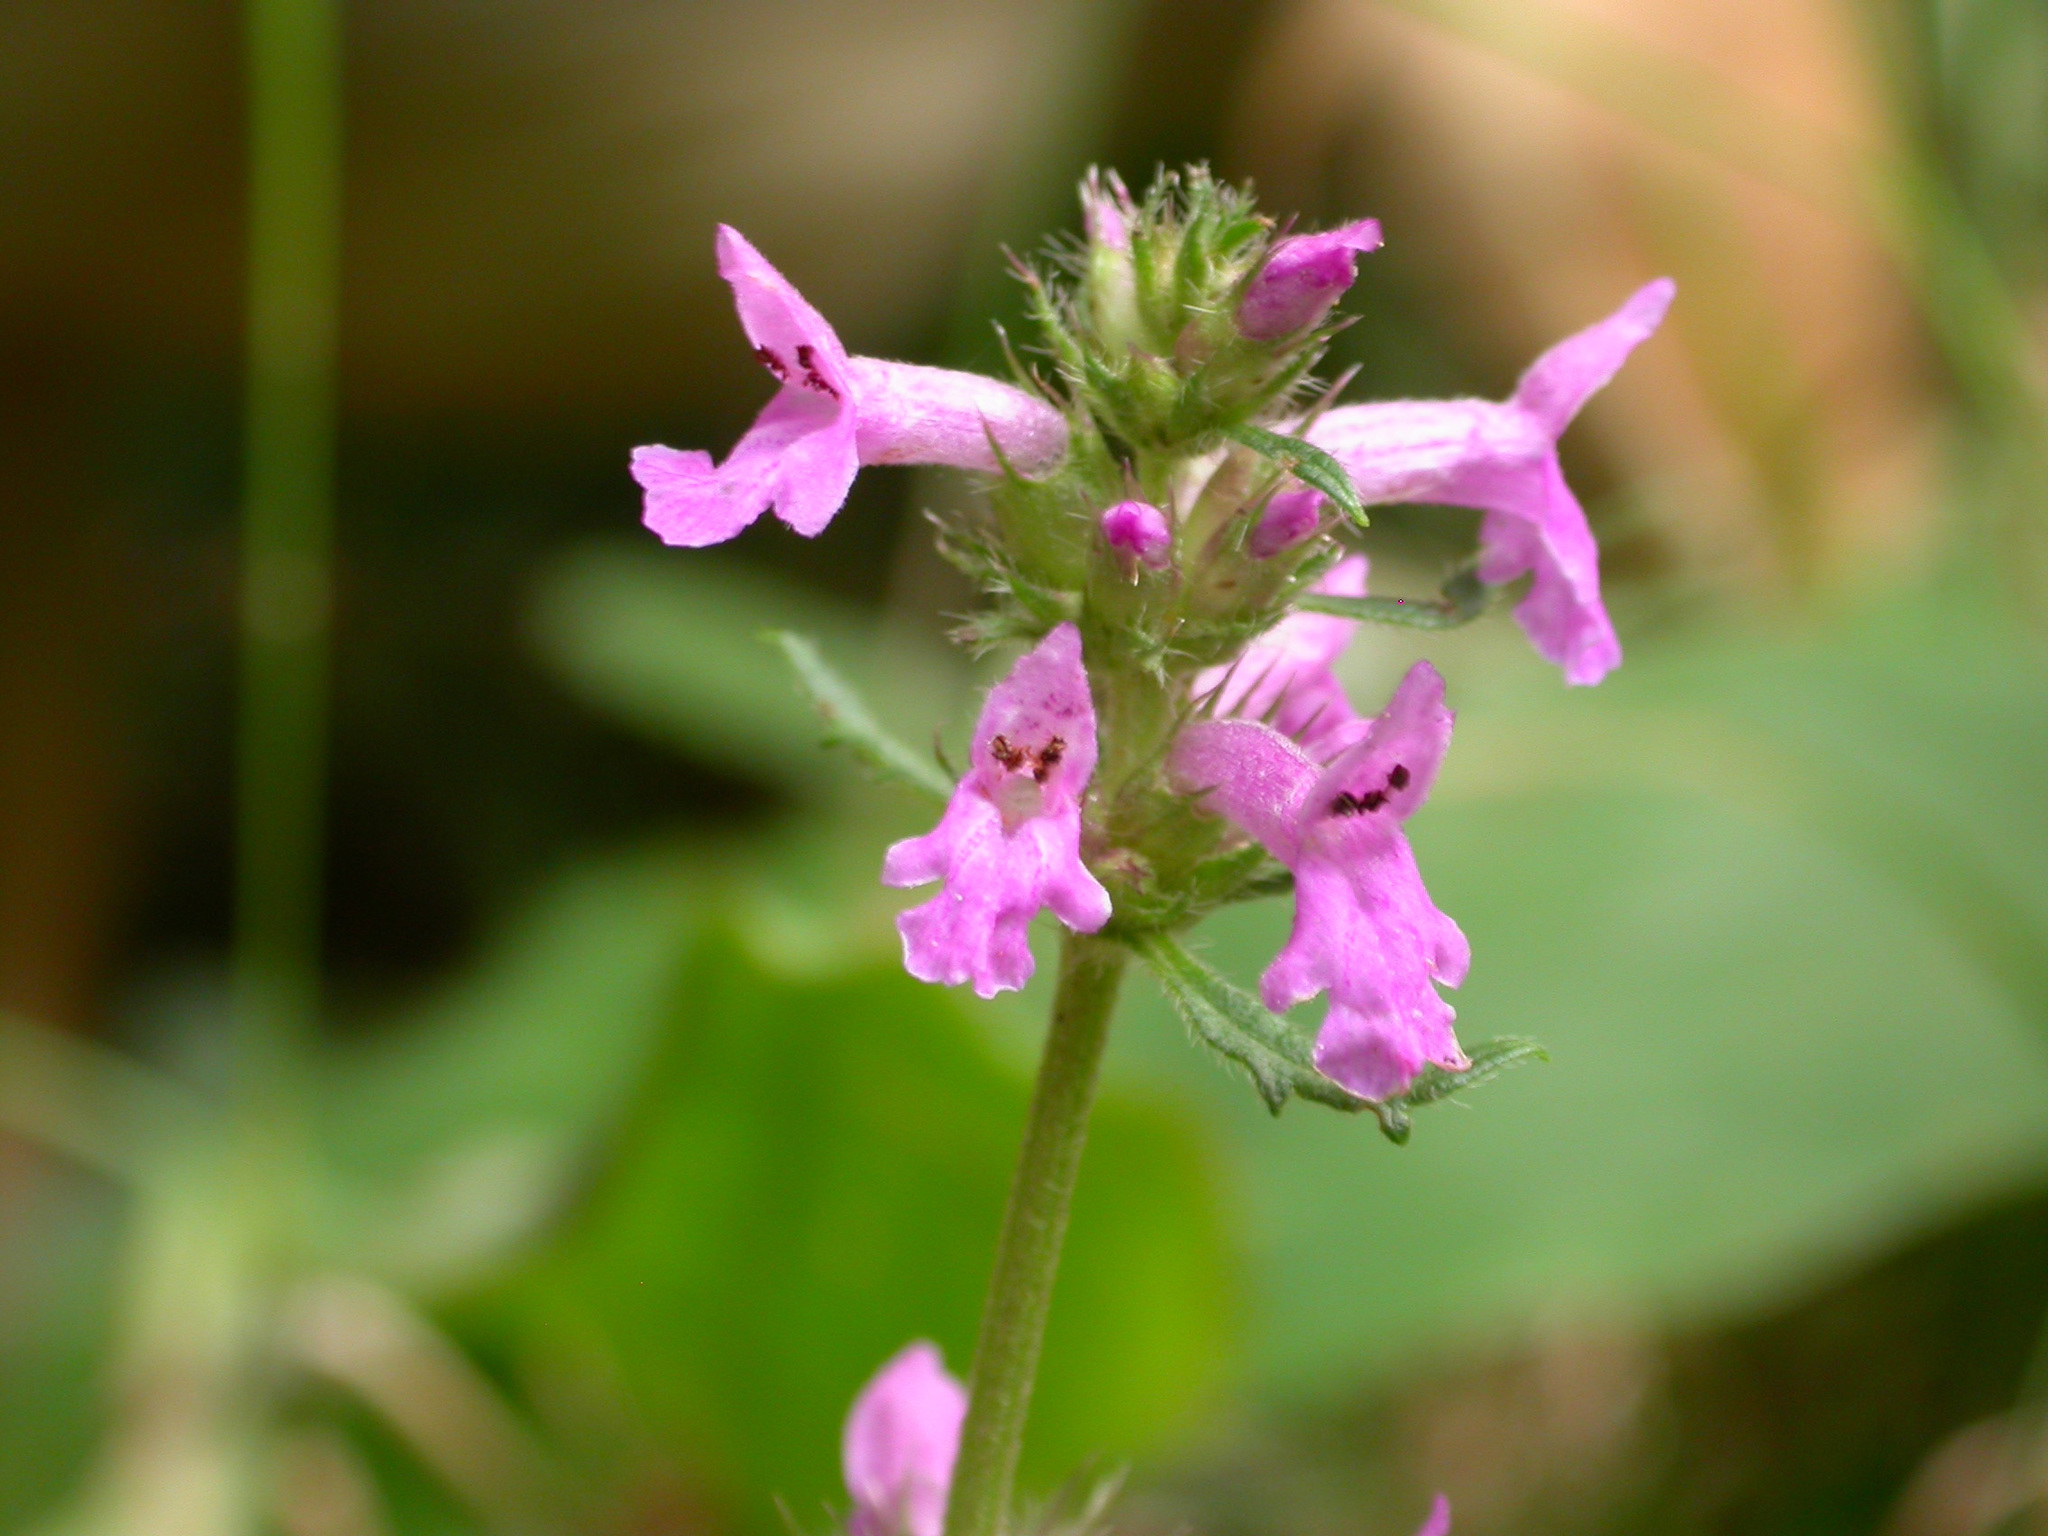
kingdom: Plantae
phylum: Tracheophyta
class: Magnoliopsida
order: Lamiales
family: Lamiaceae
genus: Betonica
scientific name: Betonica officinalis
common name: Bishop's-wort
